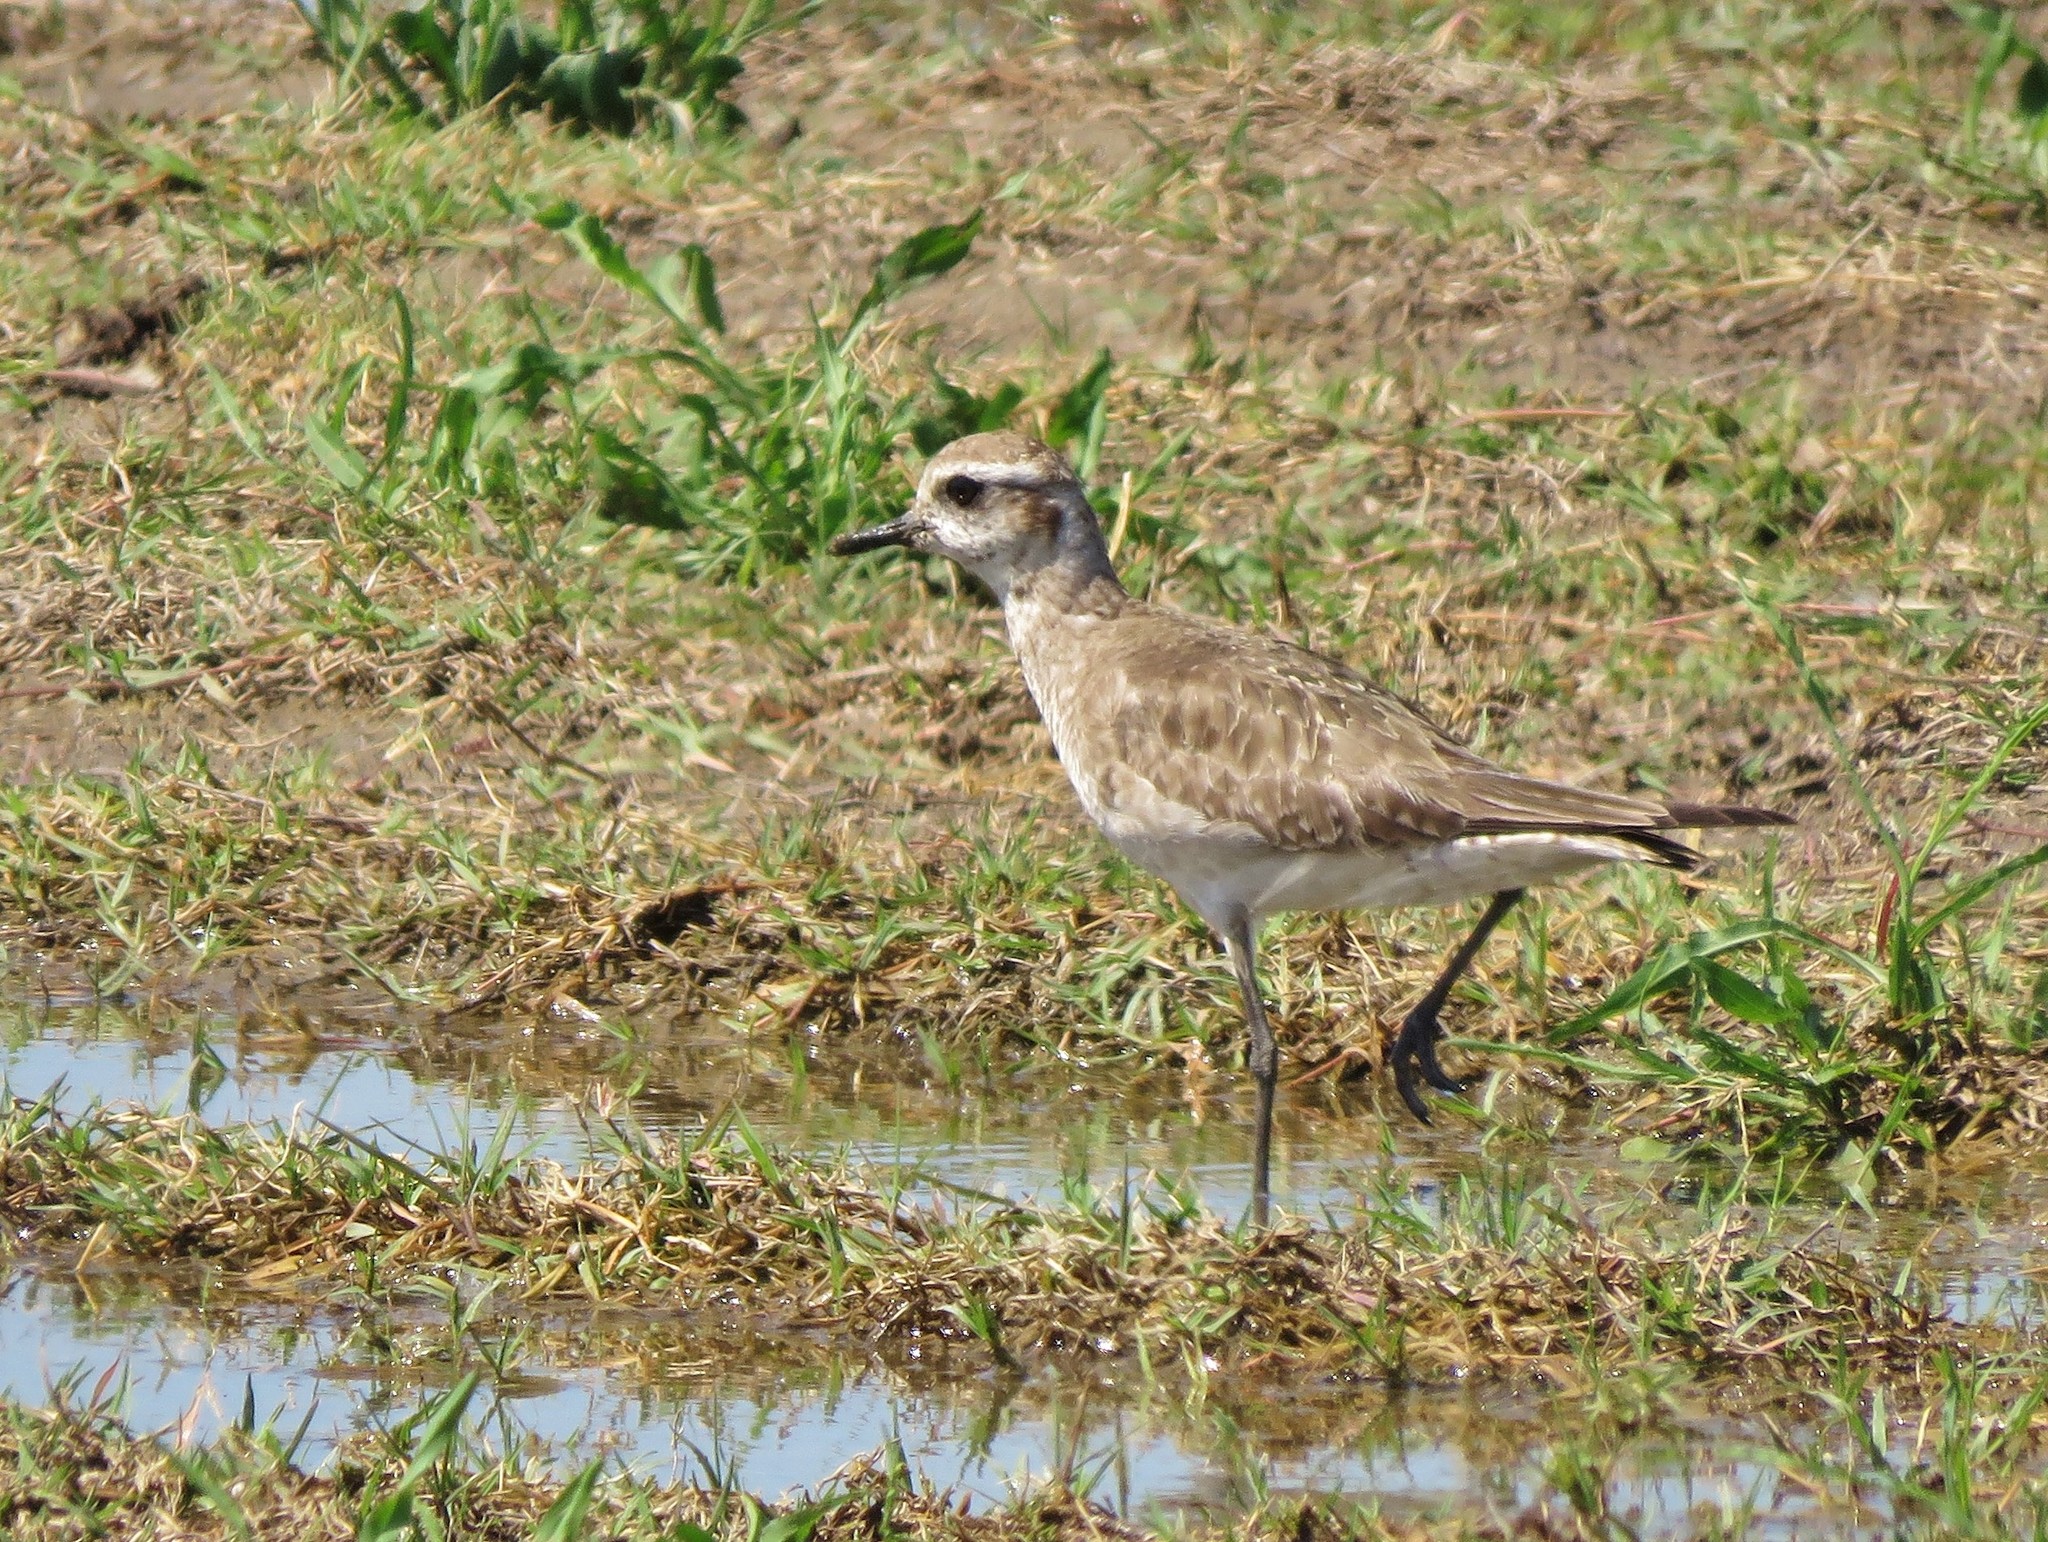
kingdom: Animalia
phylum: Chordata
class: Aves
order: Charadriiformes
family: Charadriidae
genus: Pluvialis
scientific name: Pluvialis dominica
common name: American golden plover
